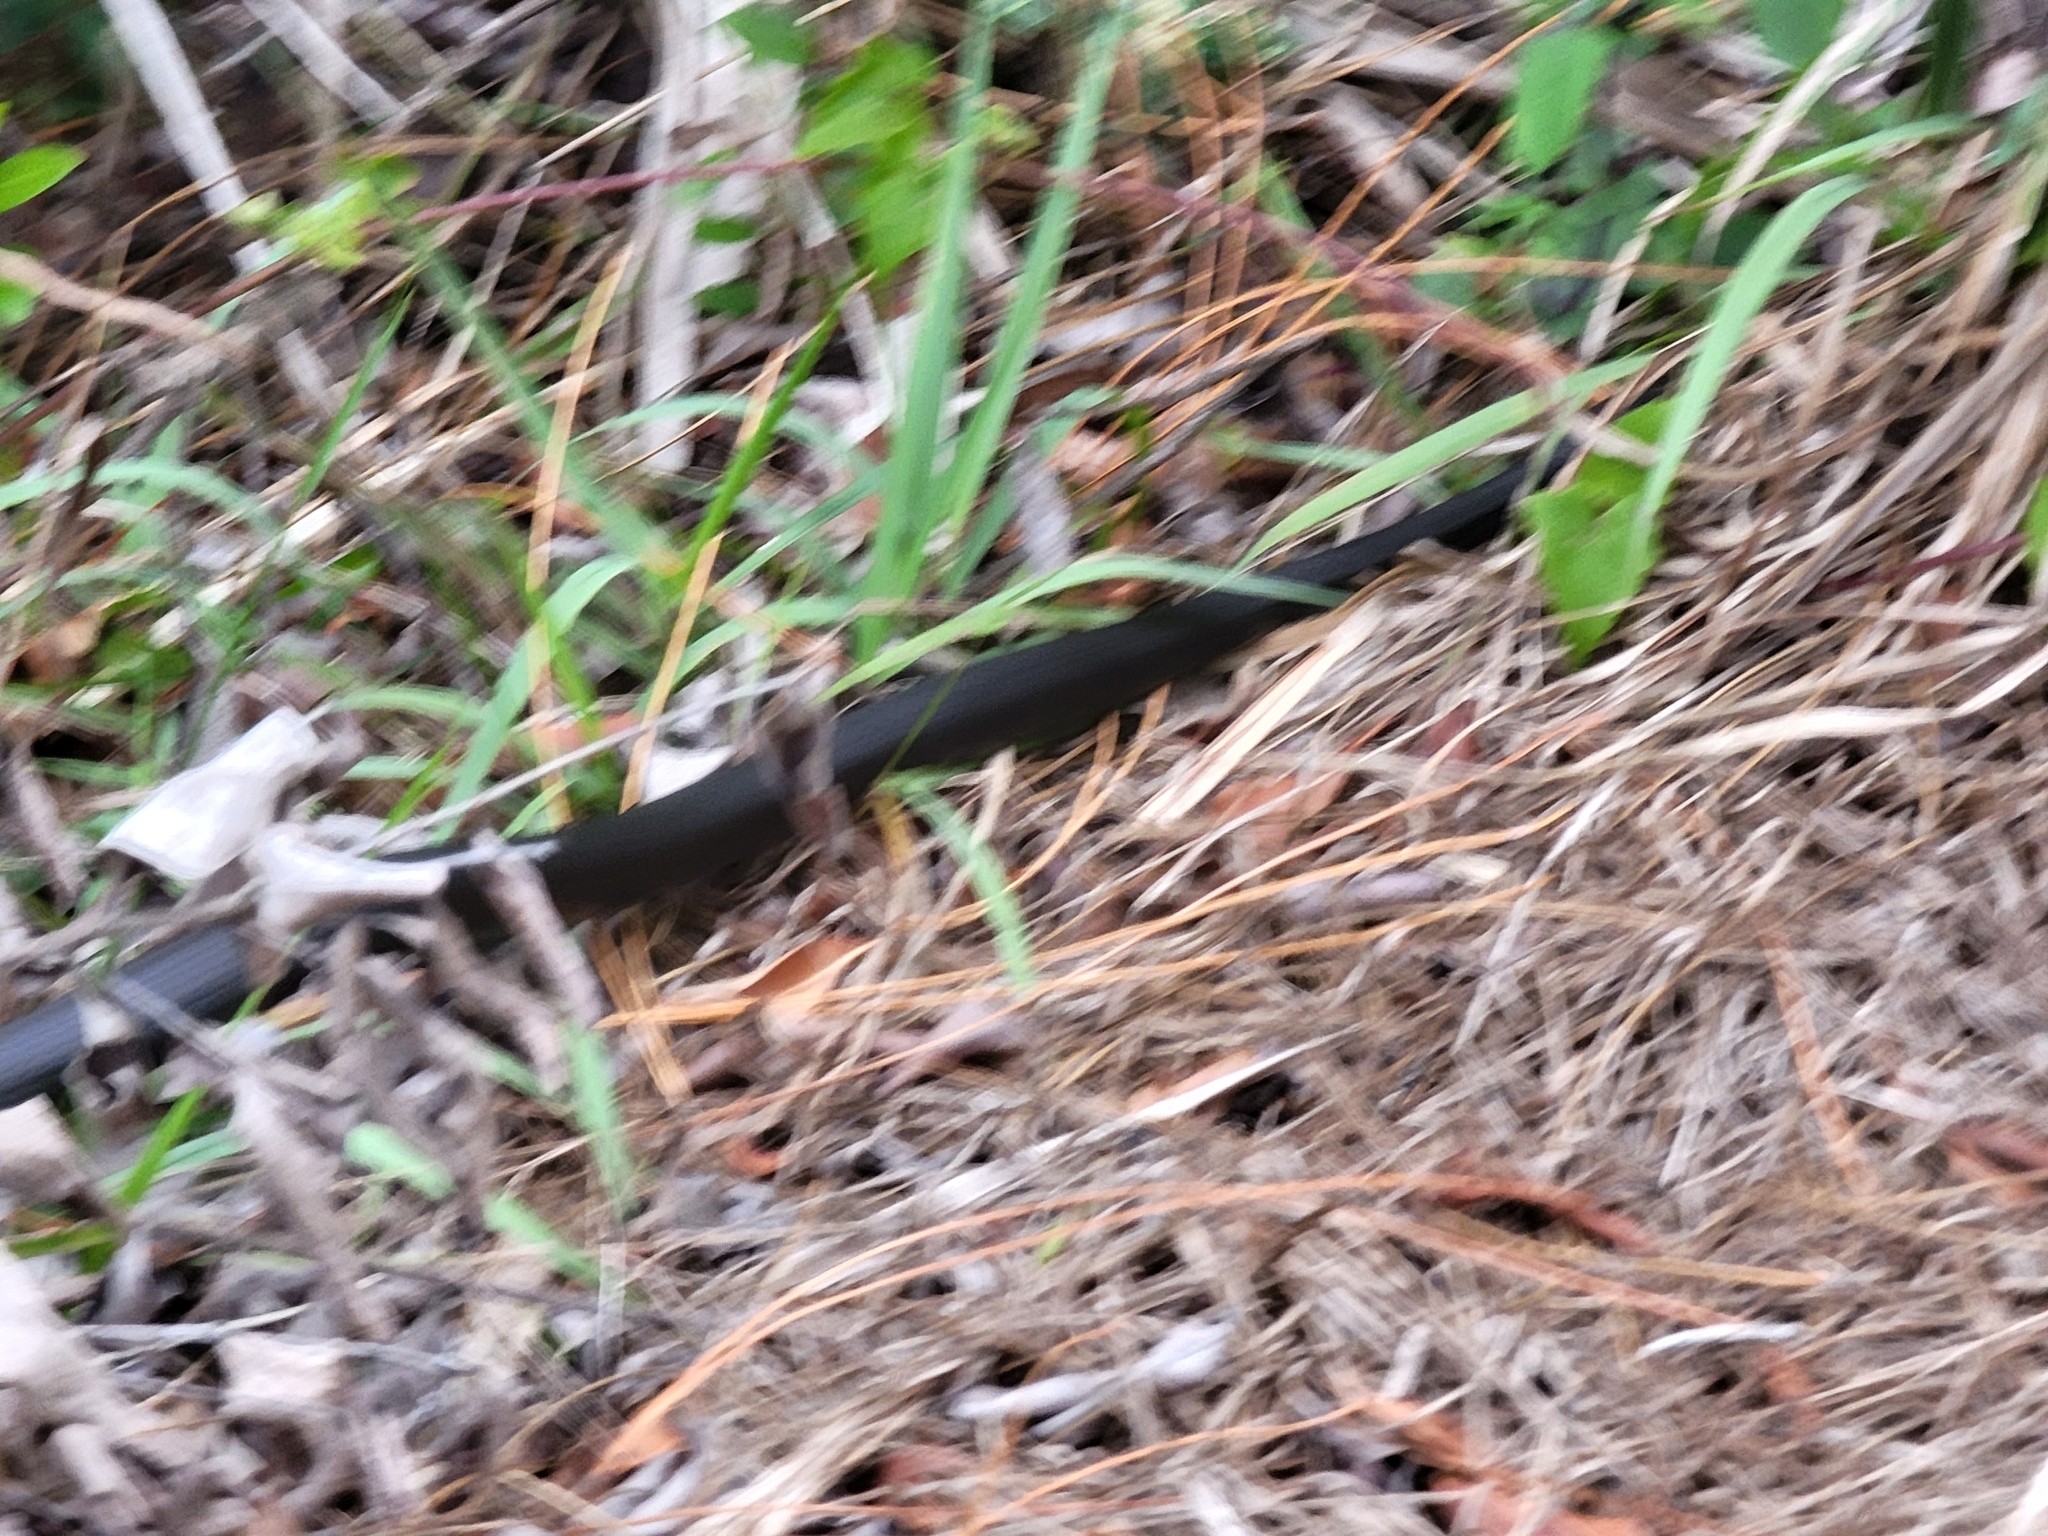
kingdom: Animalia
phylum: Chordata
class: Squamata
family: Colubridae
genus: Coluber
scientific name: Coluber constrictor
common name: Eastern racer
